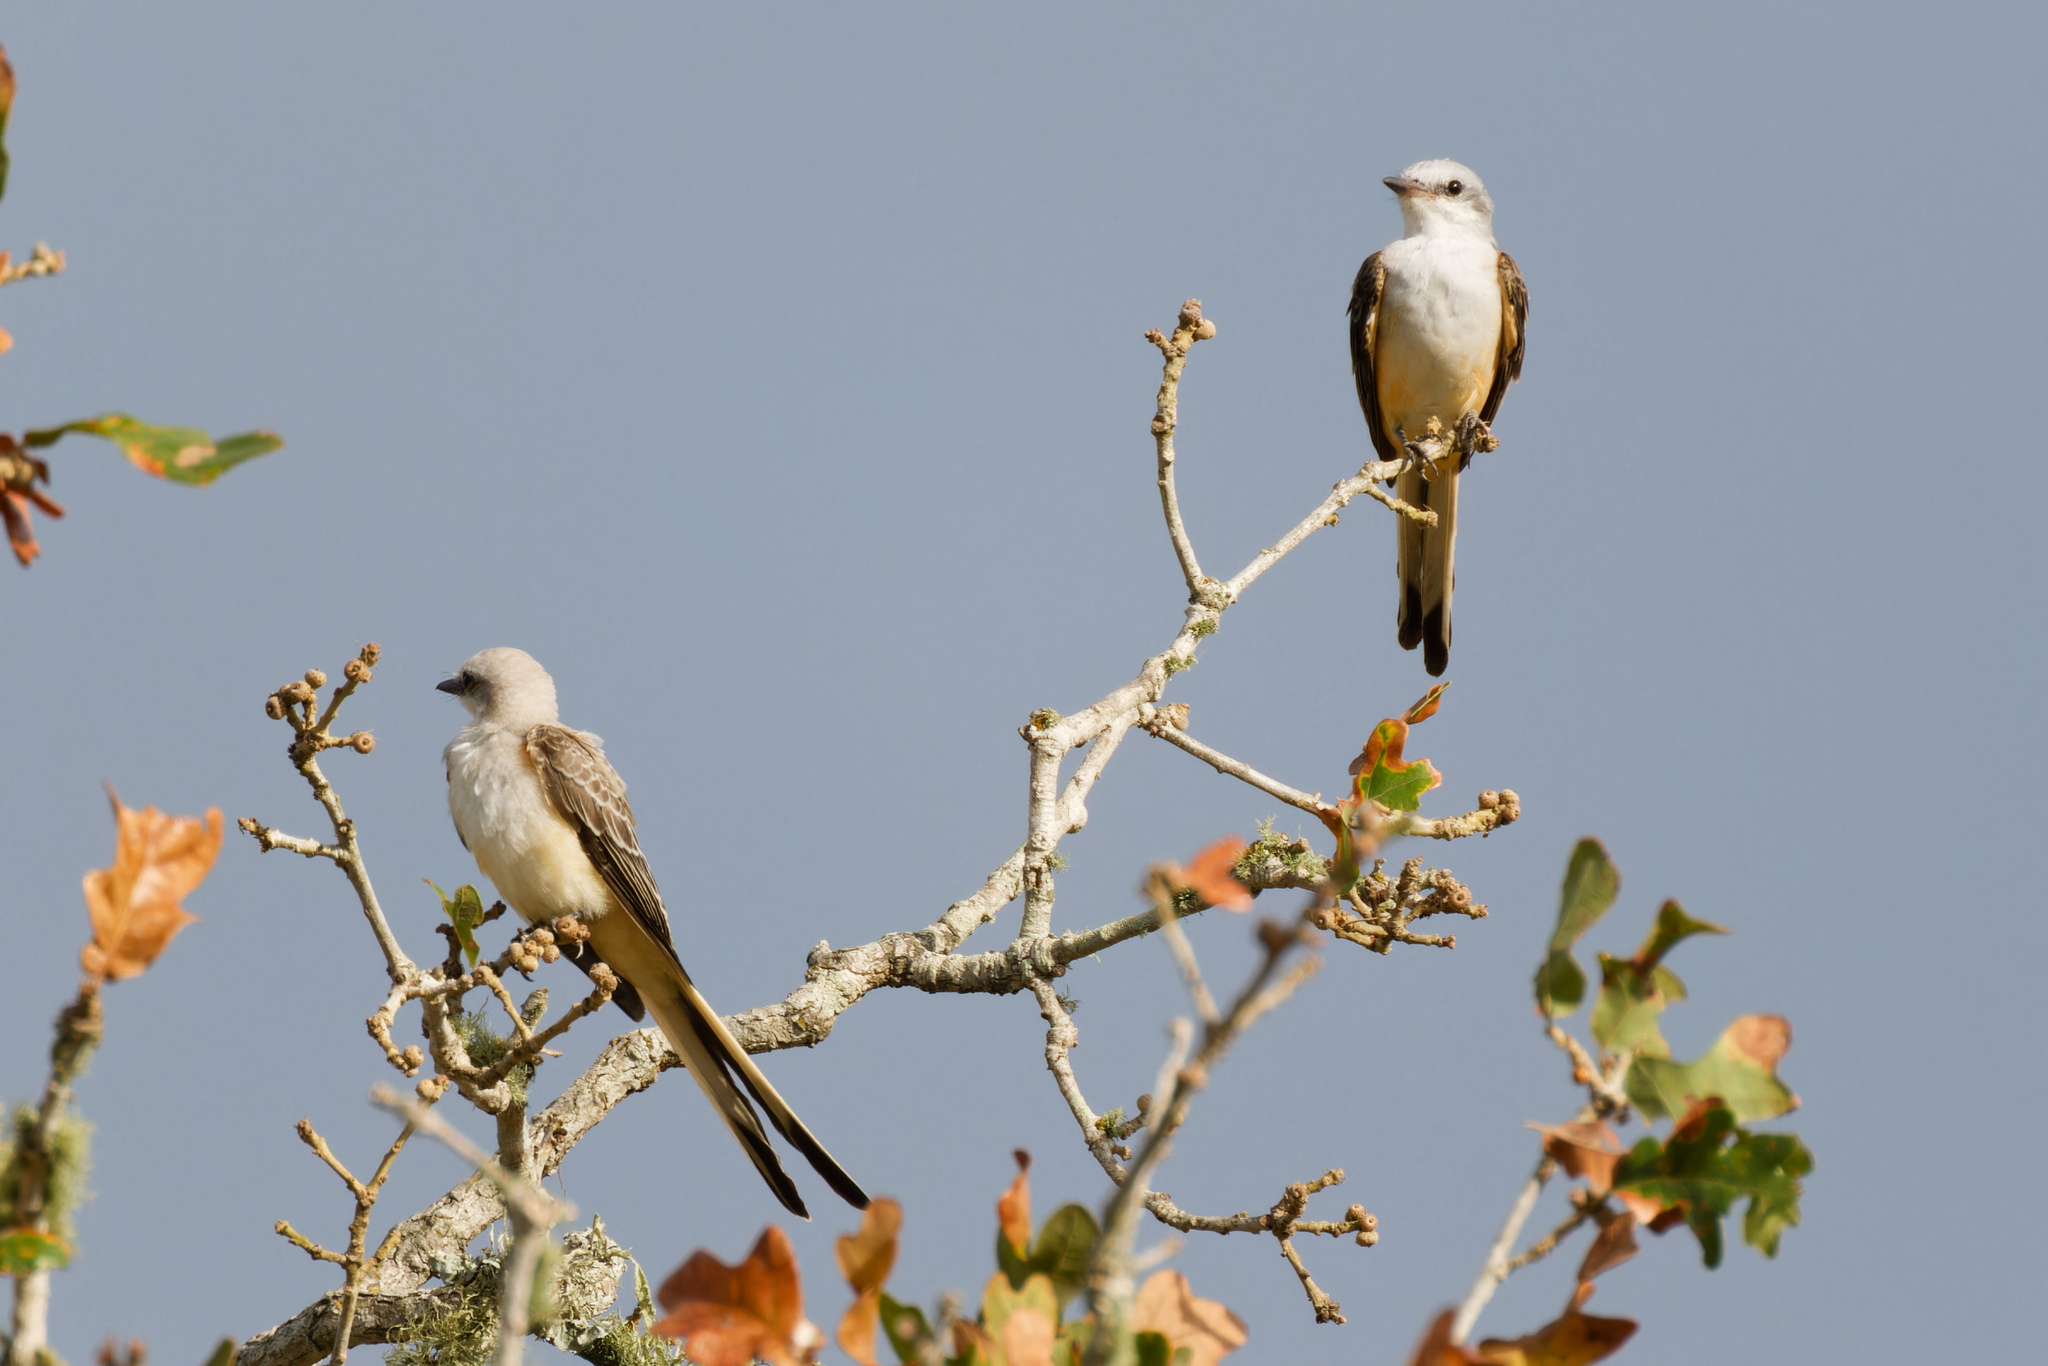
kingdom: Animalia
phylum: Chordata
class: Aves
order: Passeriformes
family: Tyrannidae
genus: Tyrannus
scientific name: Tyrannus forficatus
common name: Scissor-tailed flycatcher
